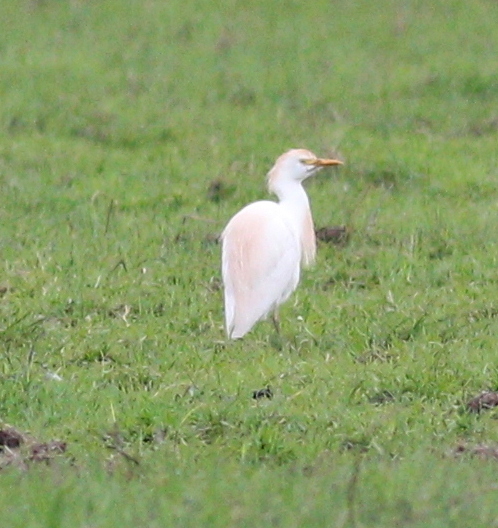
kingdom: Animalia
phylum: Chordata
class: Aves
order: Pelecaniformes
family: Ardeidae
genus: Bubulcus
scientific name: Bubulcus ibis
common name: Cattle egret
